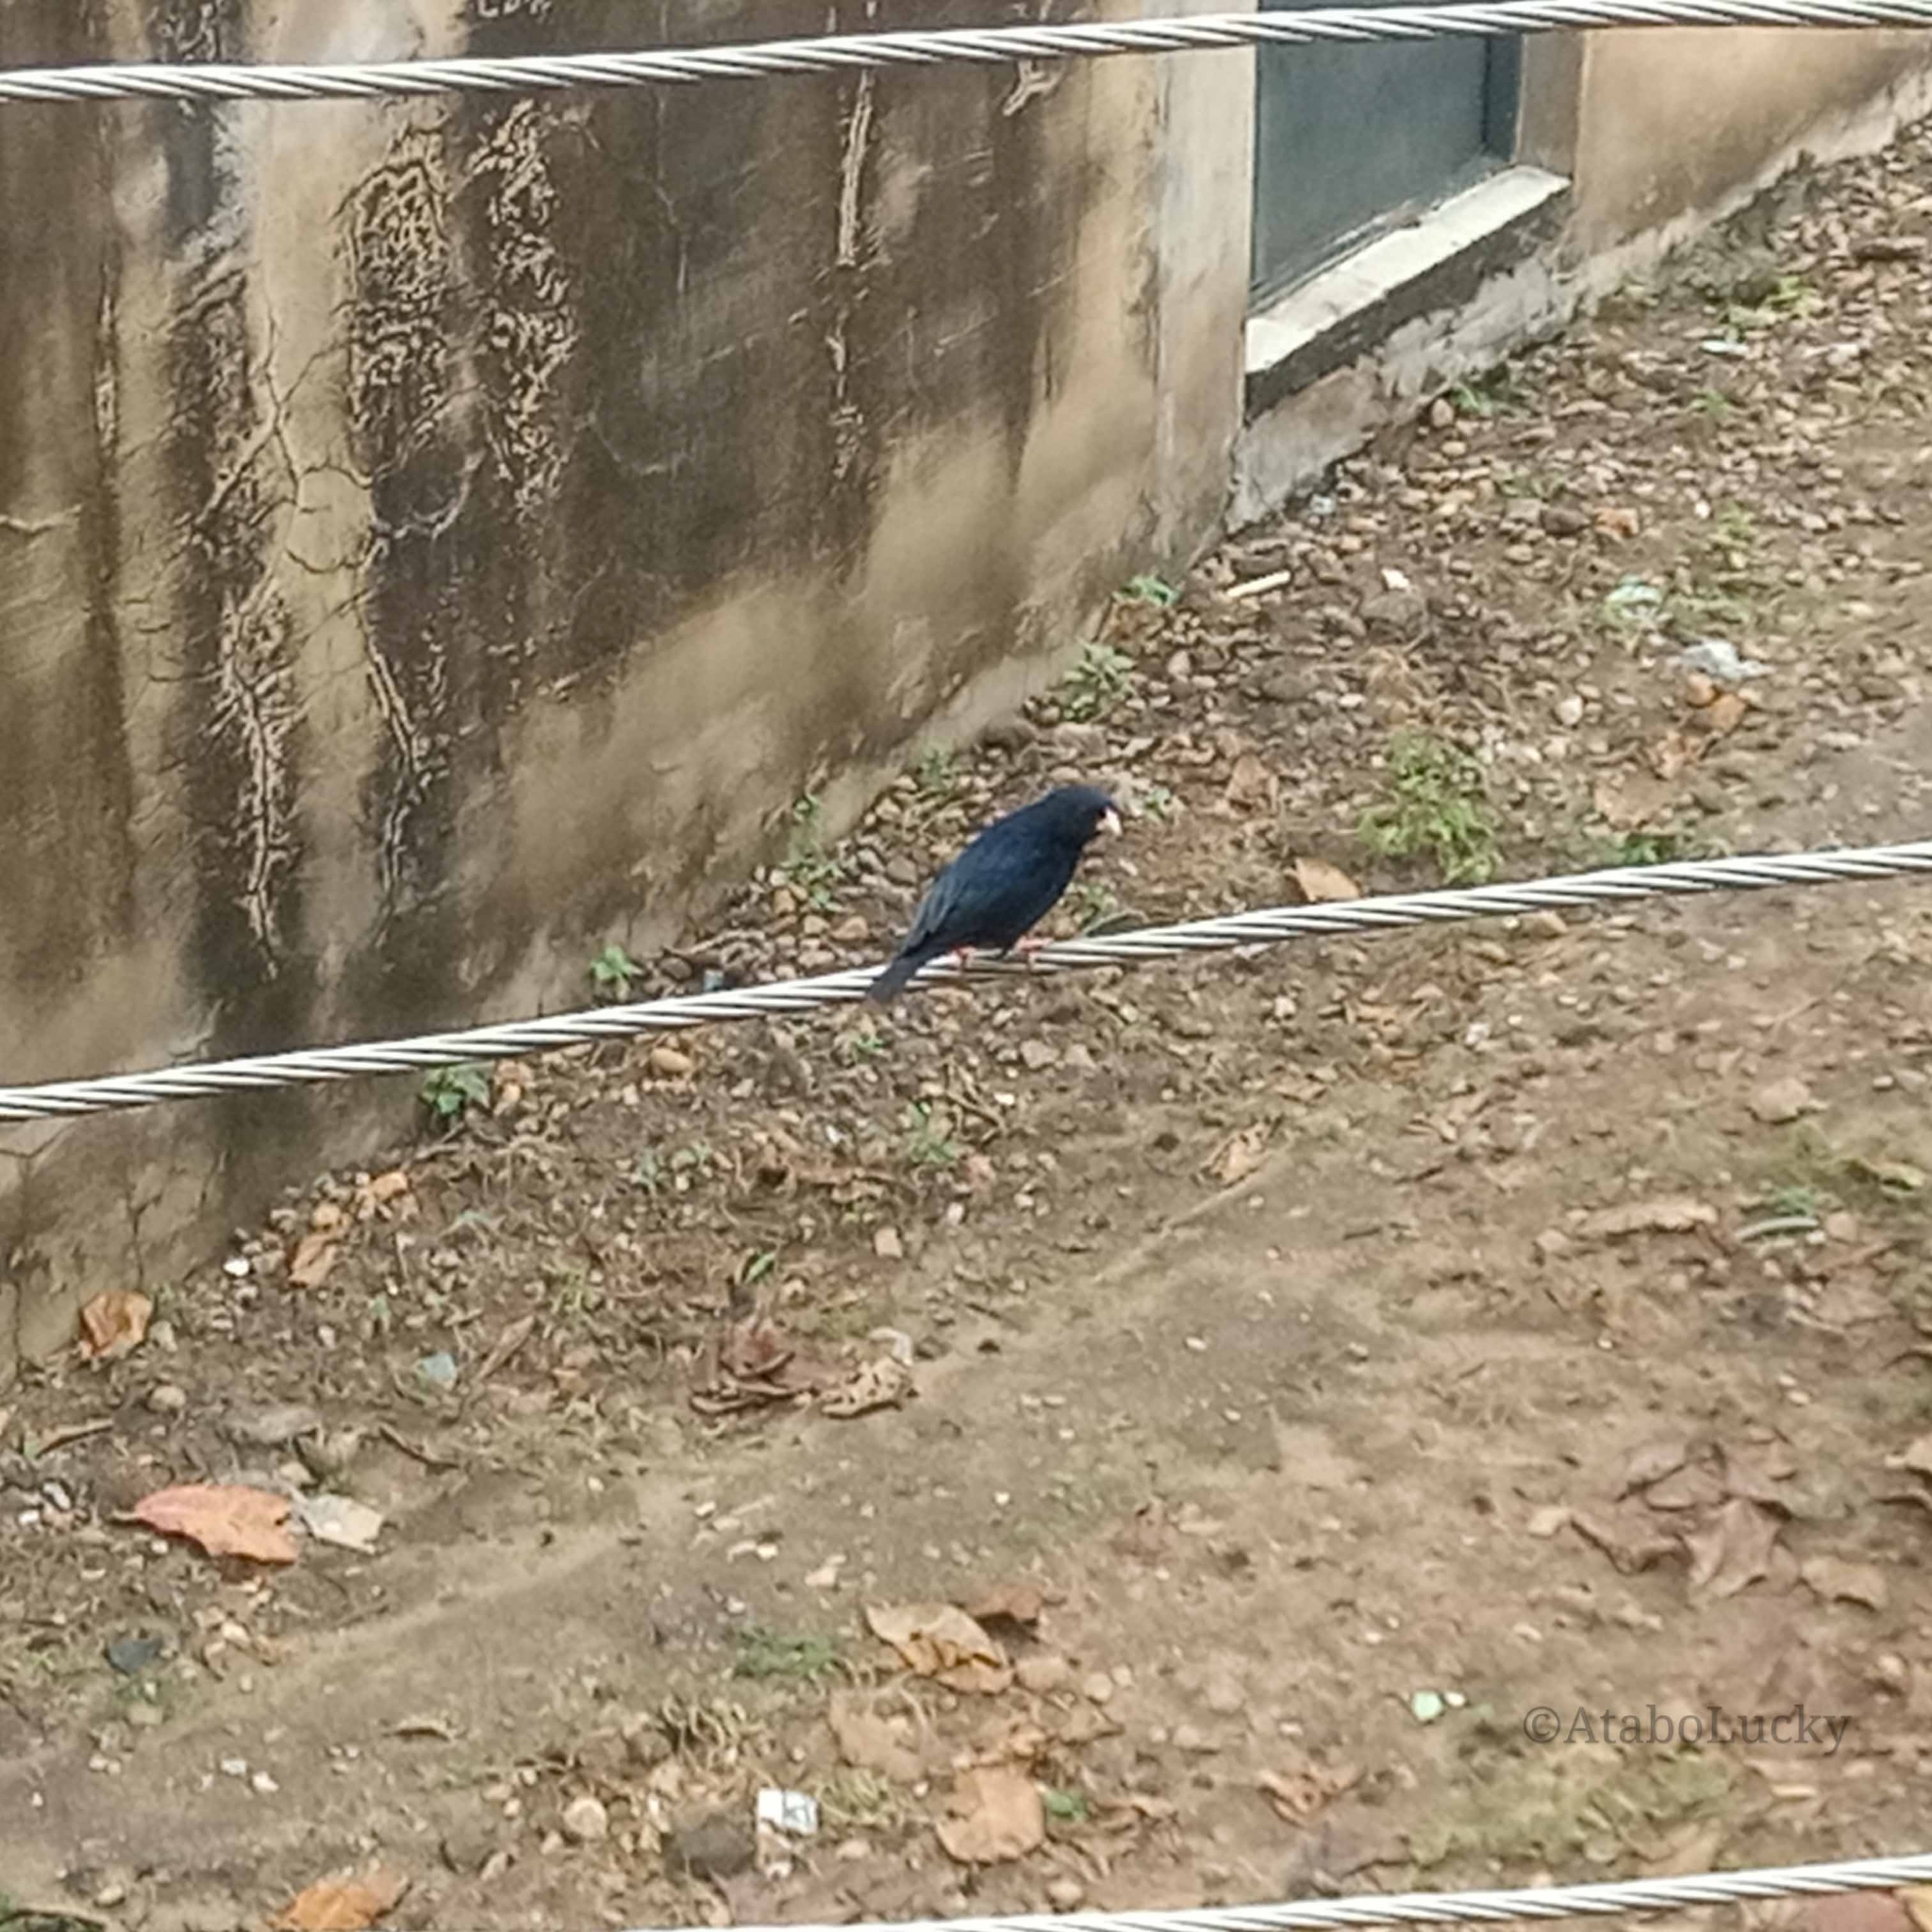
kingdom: Animalia
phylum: Chordata
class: Aves
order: Passeriformes
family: Viduidae
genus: Vidua
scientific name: Vidua chalybeata
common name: Village indigobird
